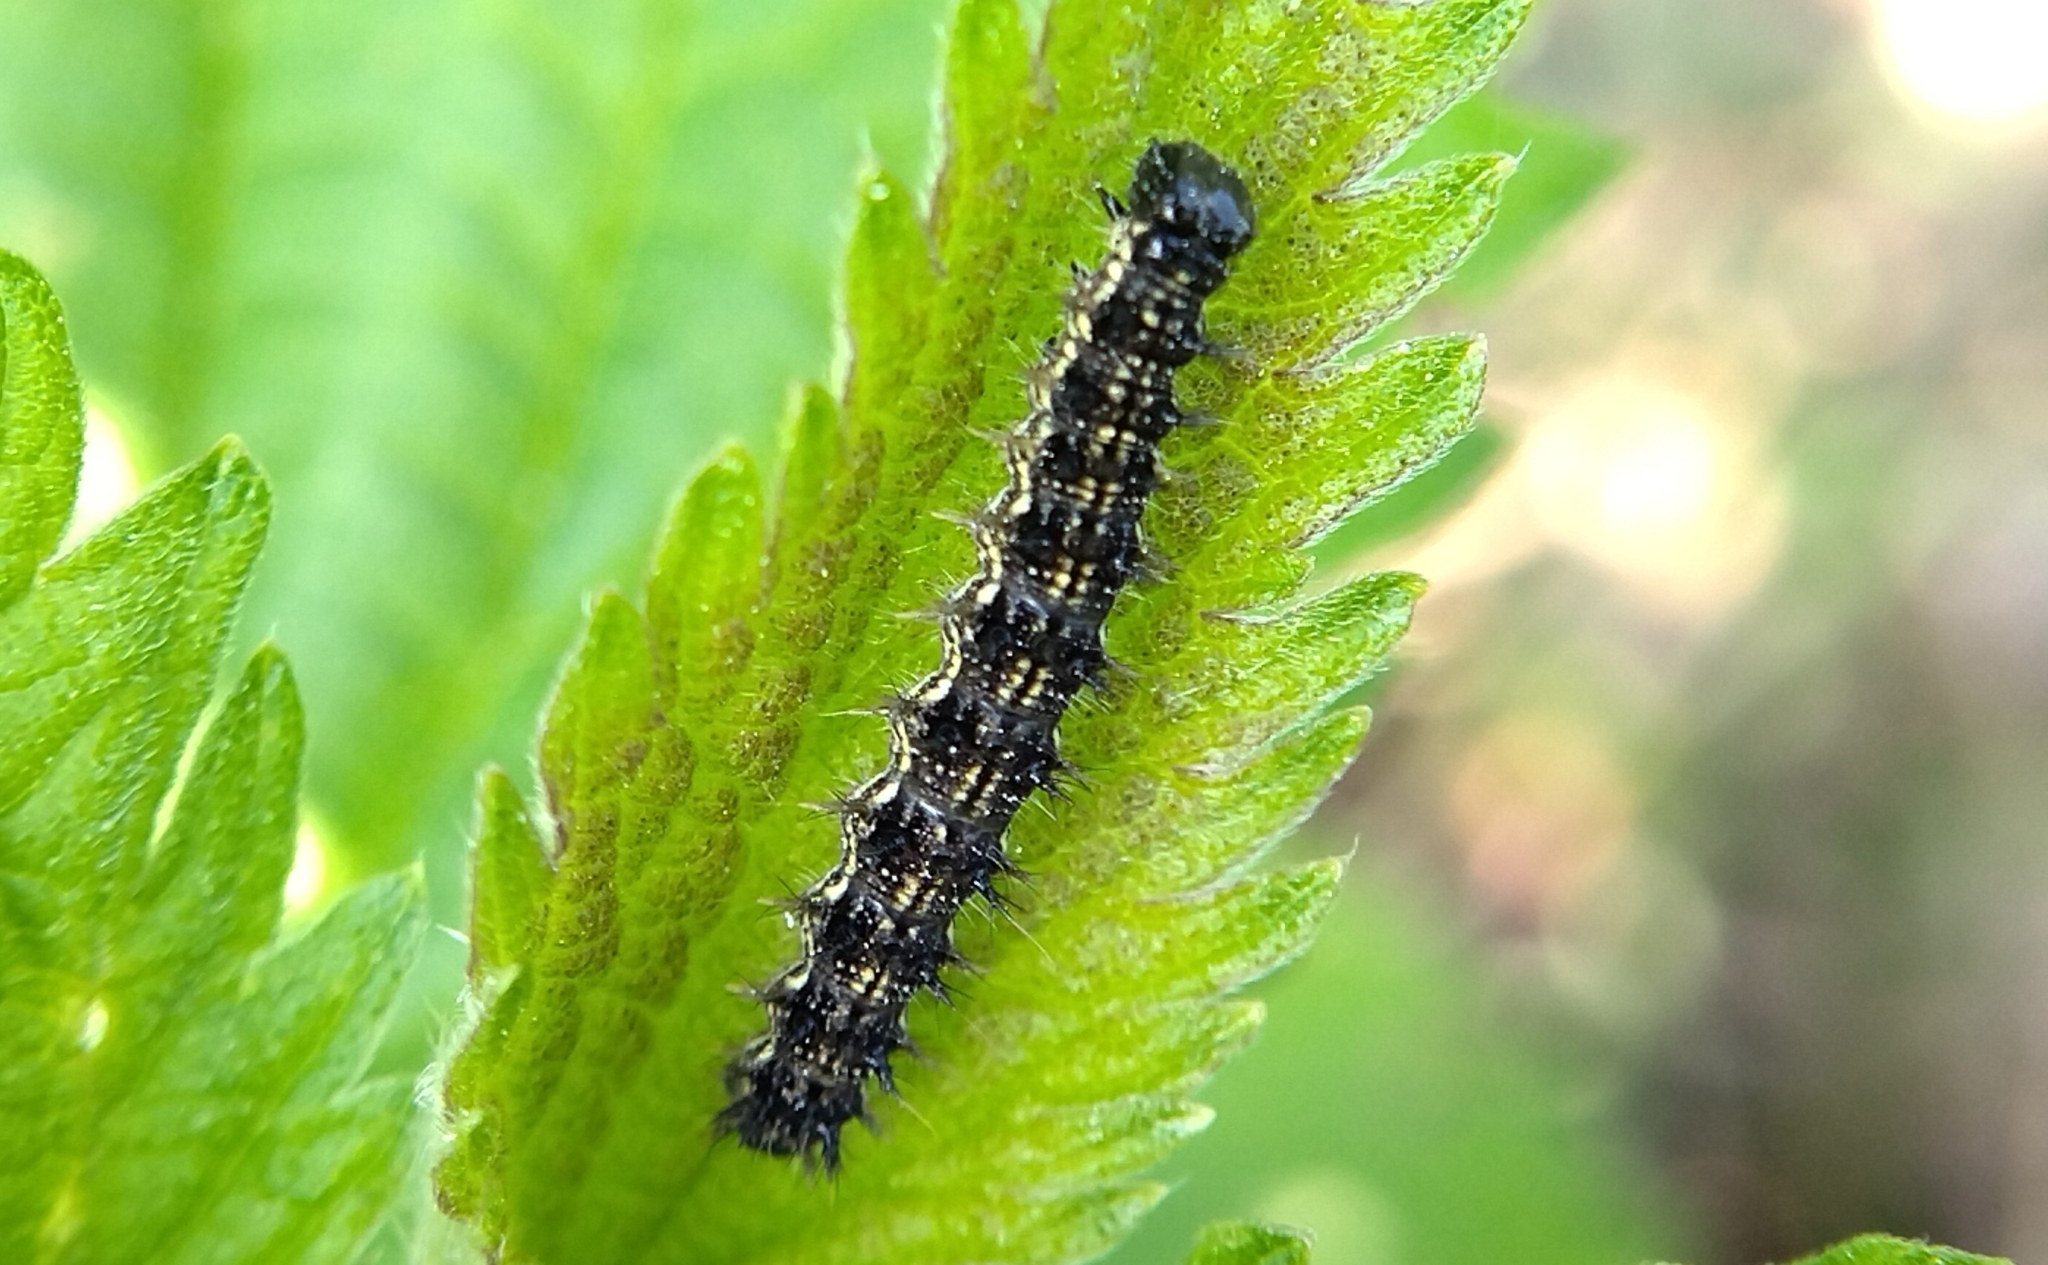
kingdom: Animalia
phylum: Arthropoda
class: Insecta
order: Lepidoptera
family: Nymphalidae
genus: Aglais
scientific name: Aglais urticae
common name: Small tortoiseshell
